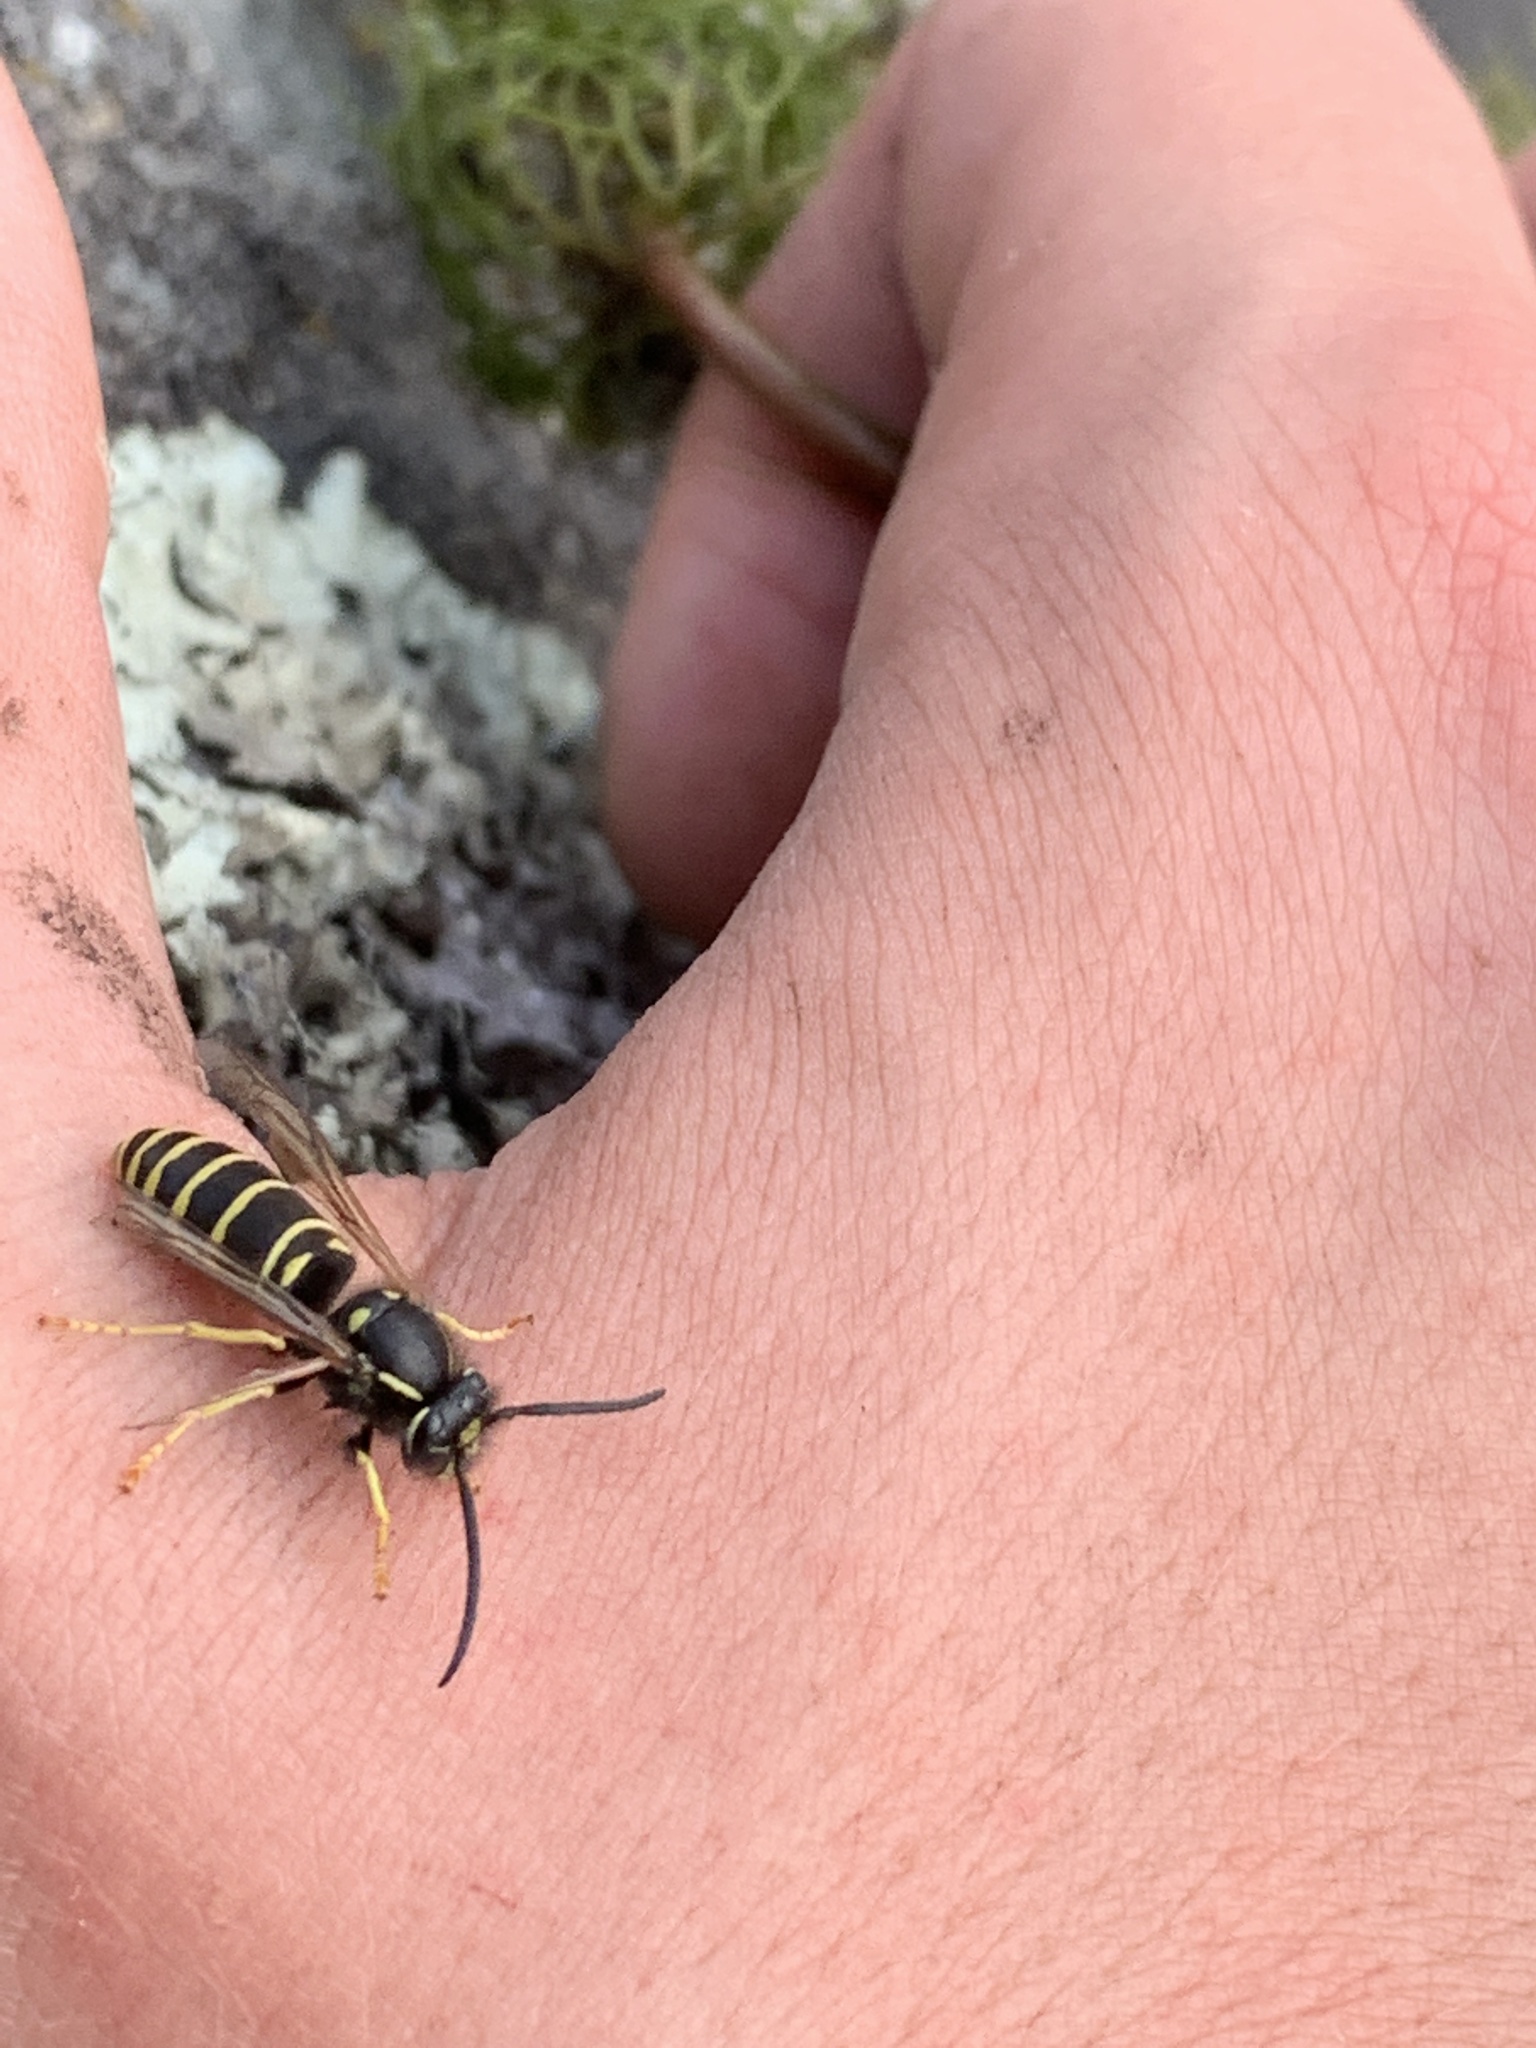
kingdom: Animalia
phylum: Arthropoda
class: Insecta
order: Hymenoptera
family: Vespidae
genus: Vespula
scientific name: Vespula
